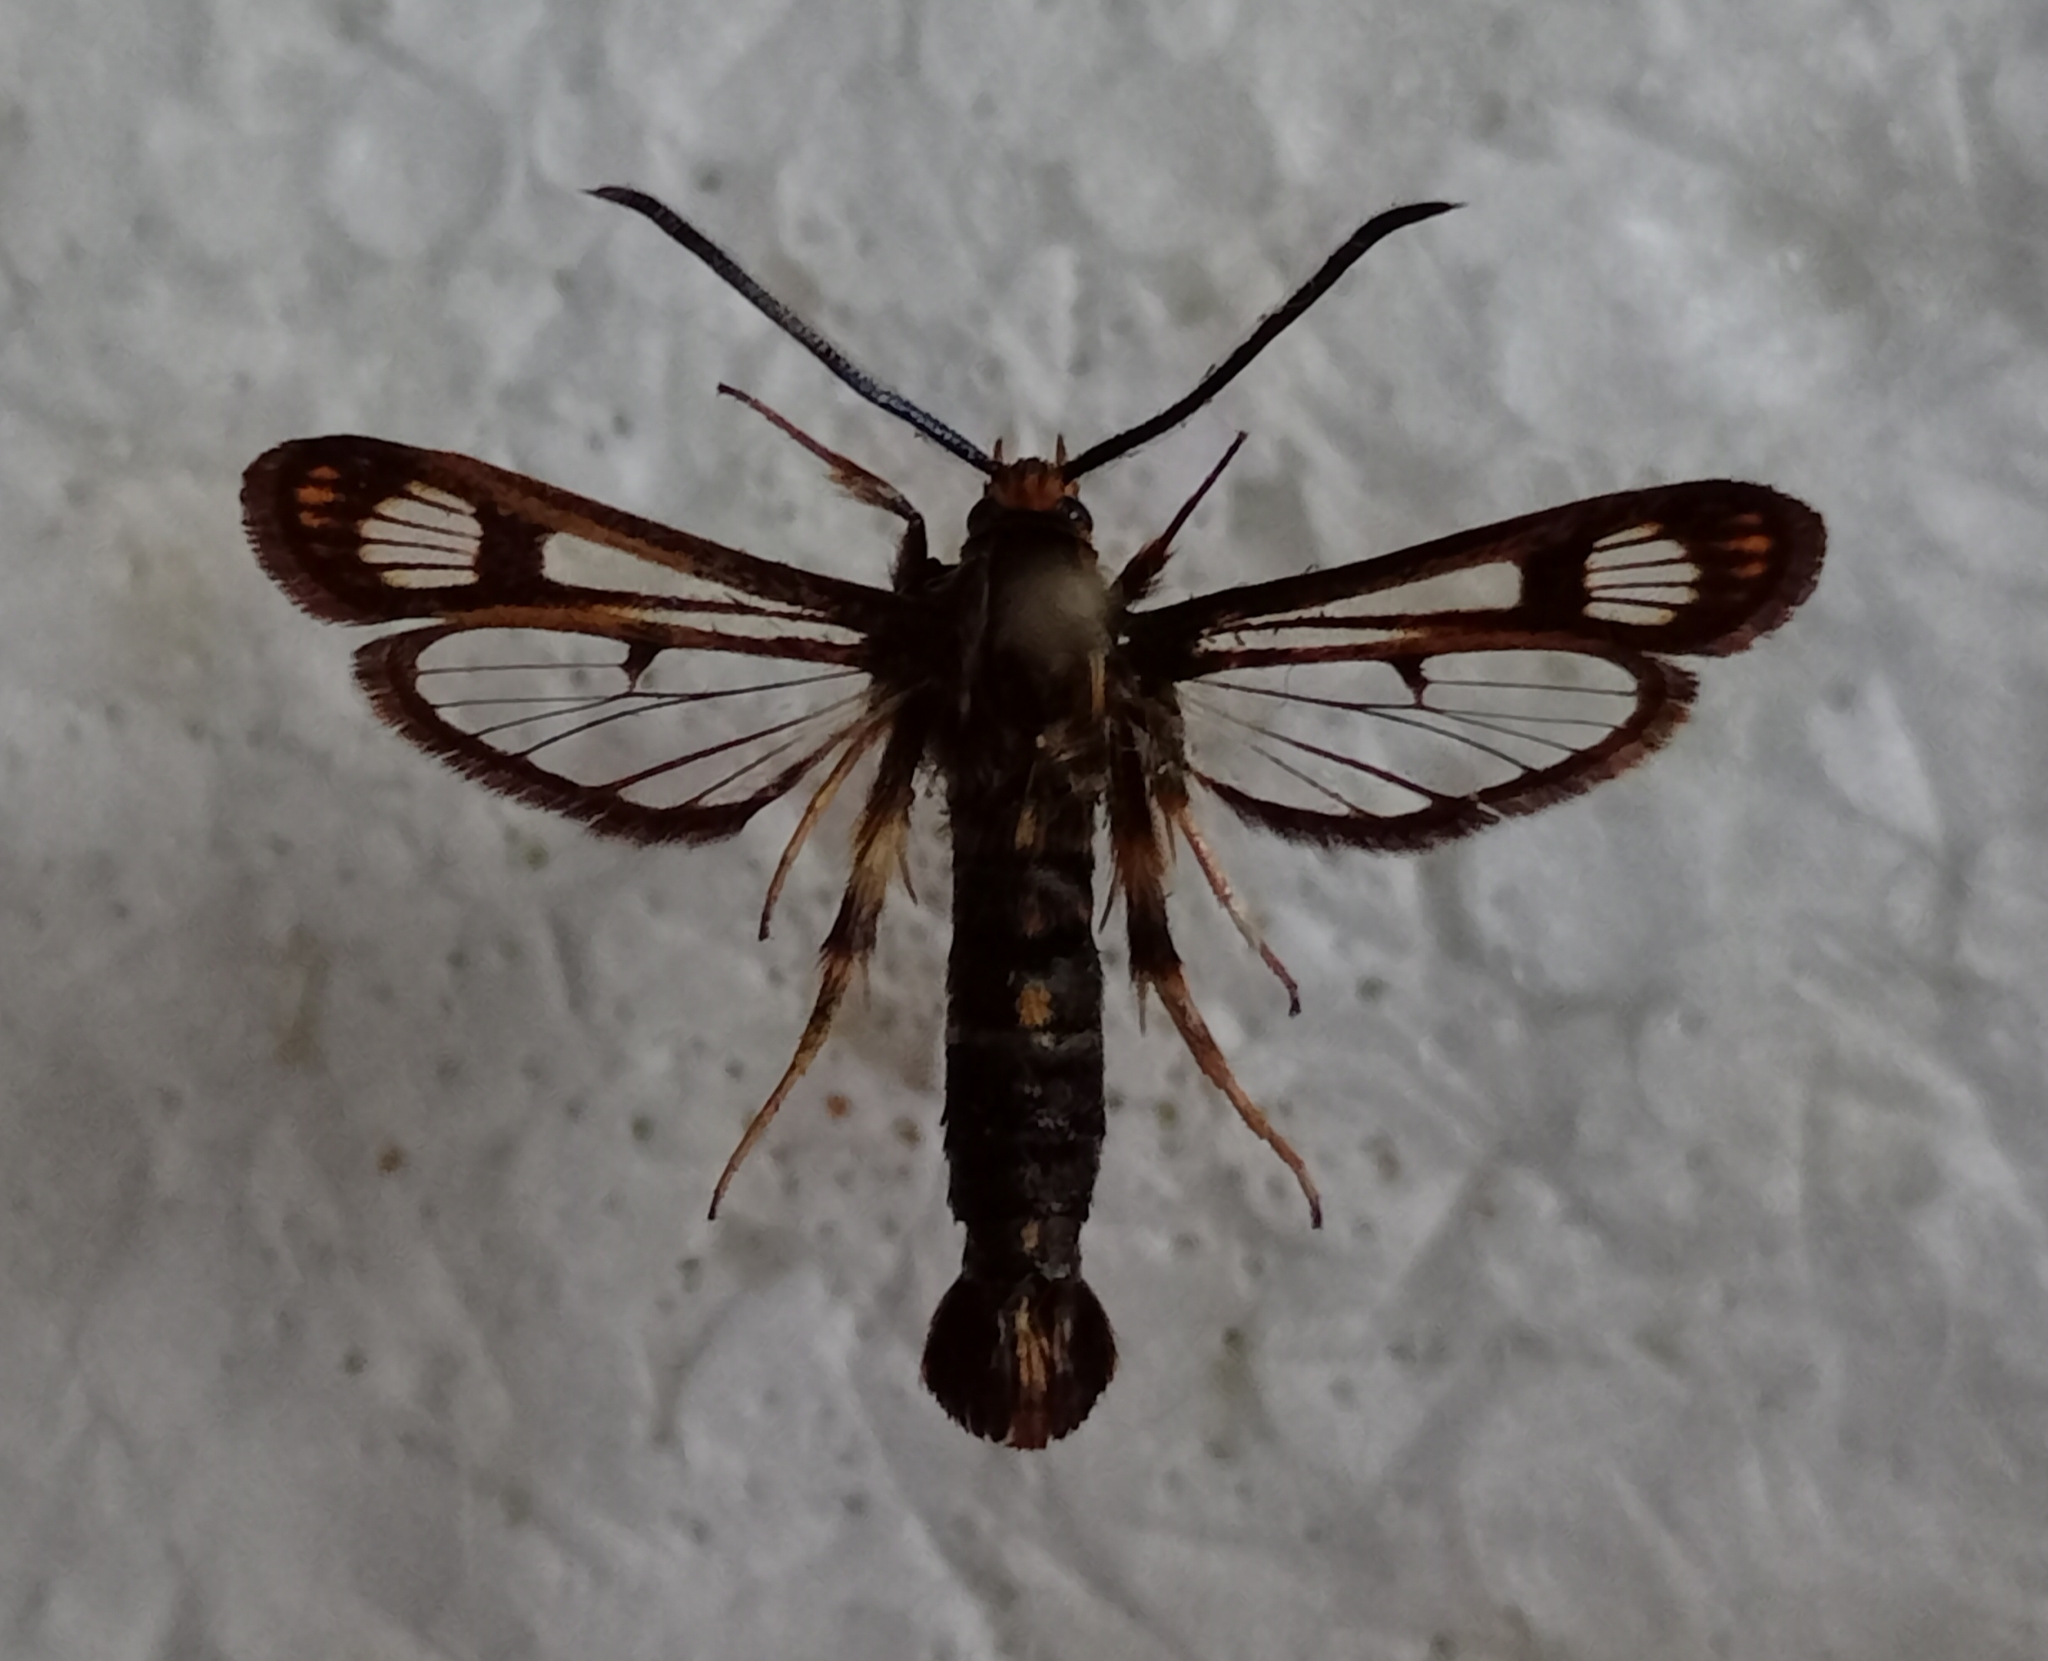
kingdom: Animalia
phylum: Arthropoda
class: Insecta
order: Lepidoptera
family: Sesiidae
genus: Chamaesphecia
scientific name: Chamaesphecia euceraeformis
